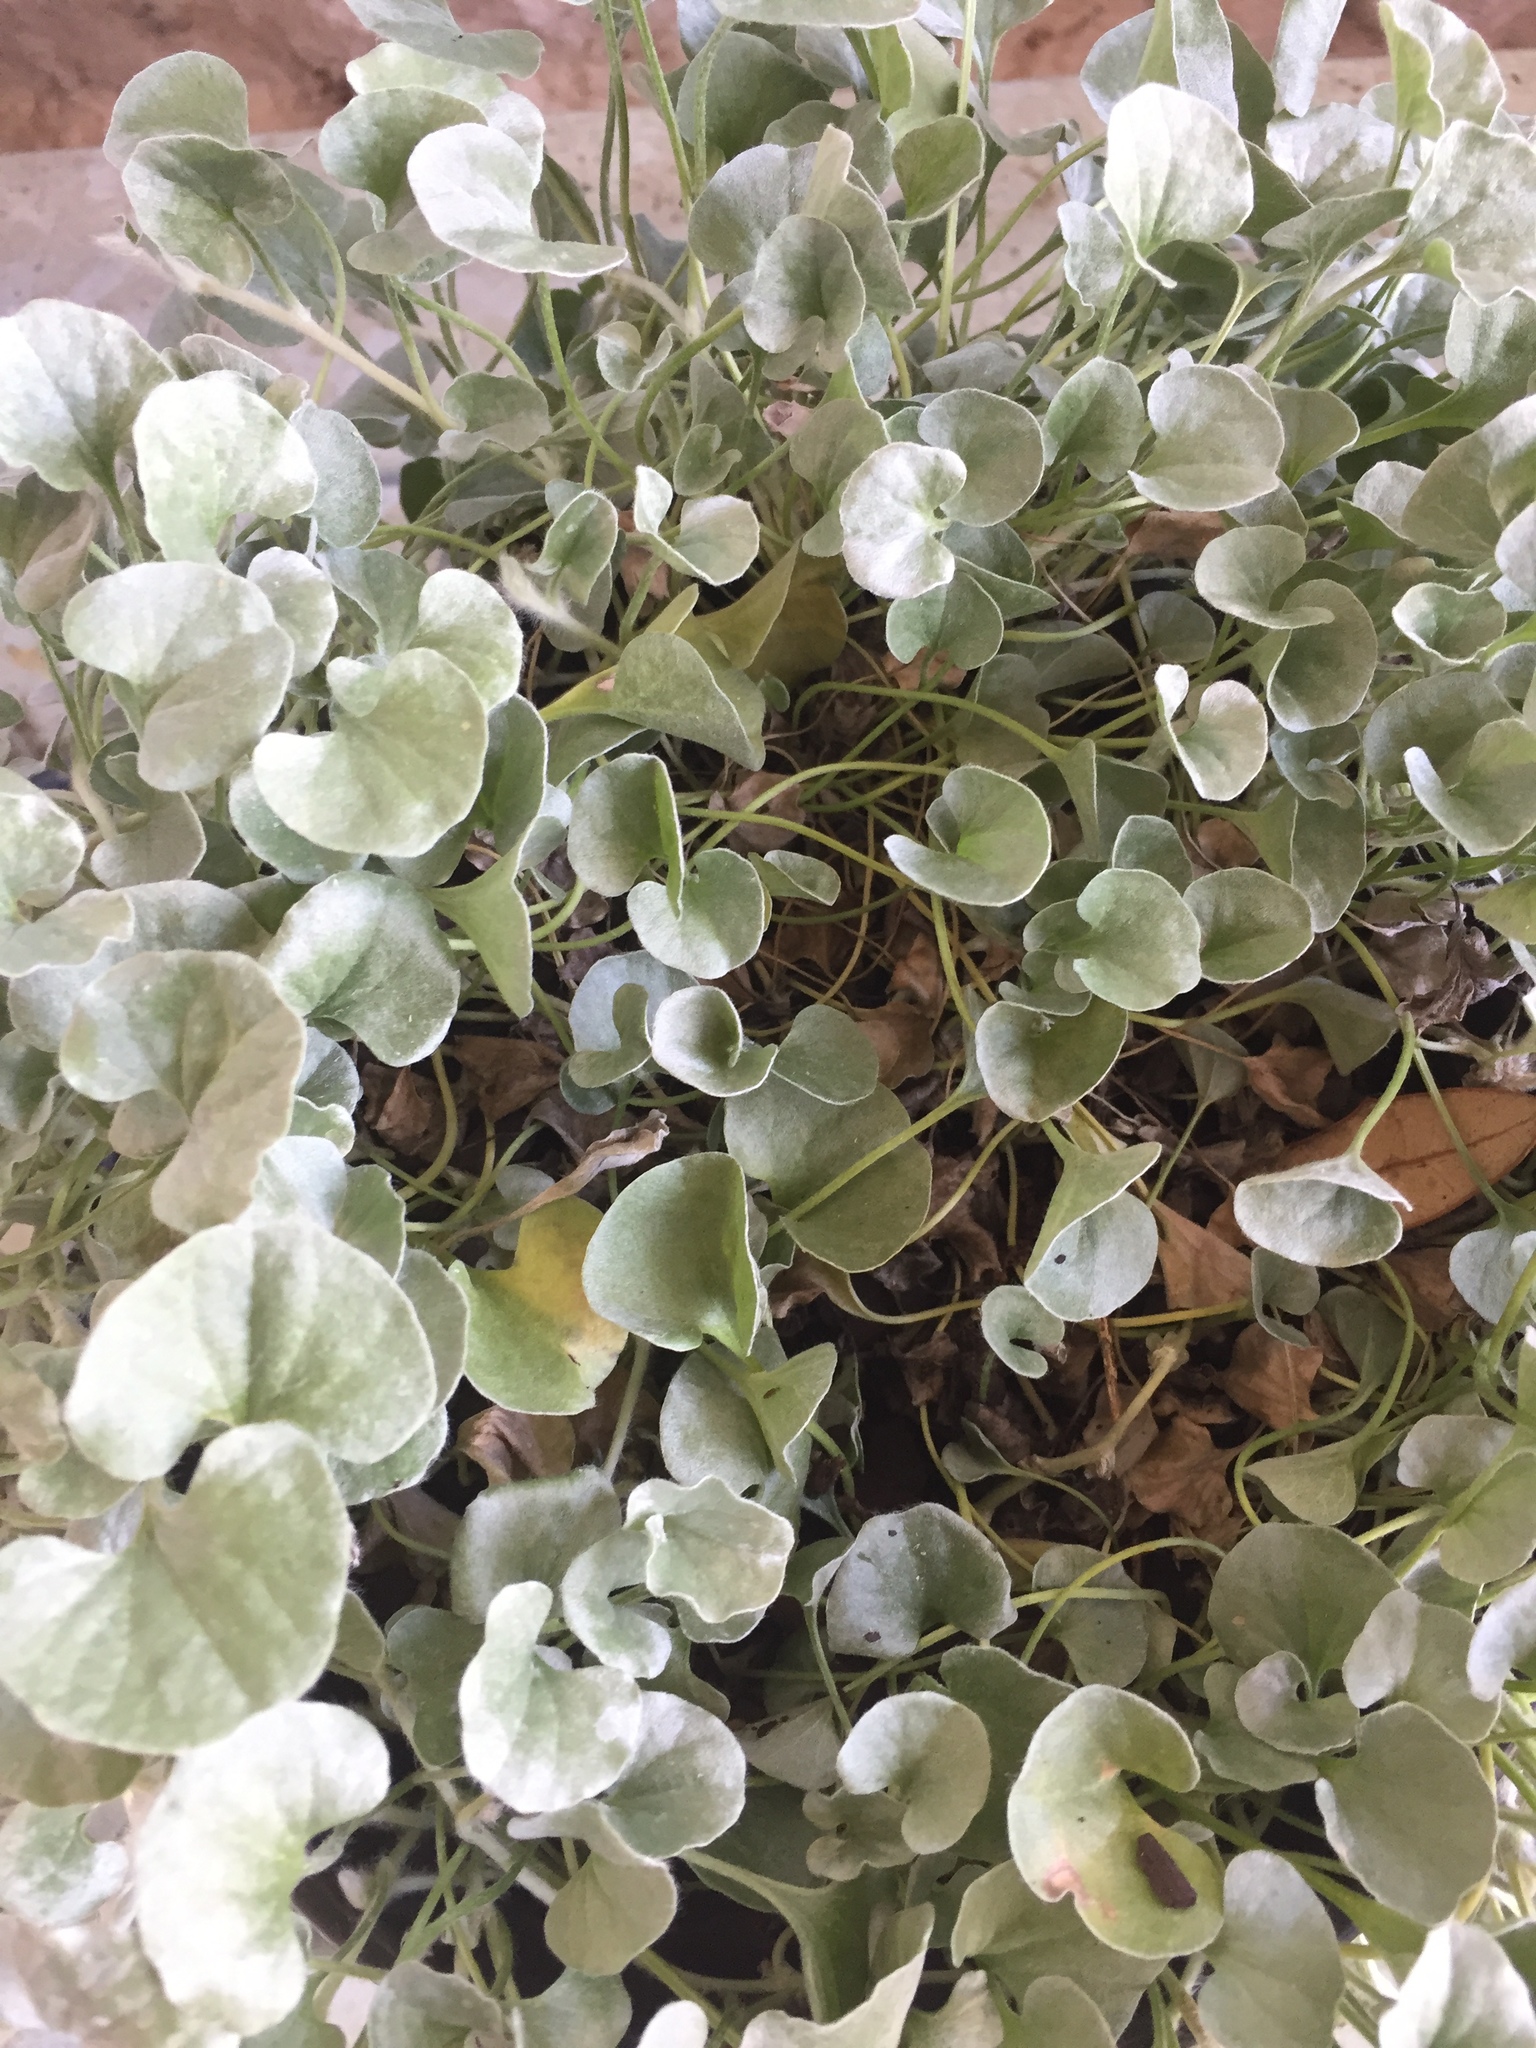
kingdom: Plantae
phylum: Tracheophyta
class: Magnoliopsida
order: Solanales
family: Convolvulaceae
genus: Dichondra
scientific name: Dichondra argentea
